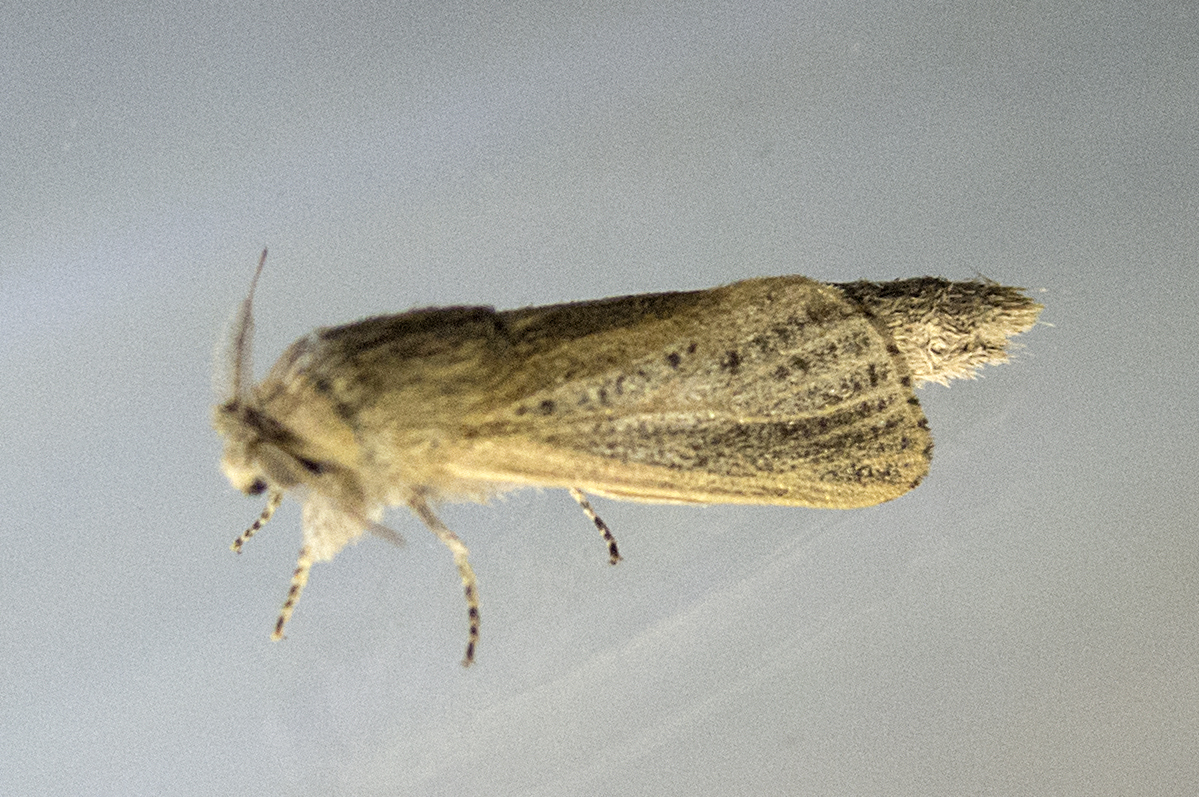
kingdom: Animalia
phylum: Arthropoda
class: Insecta
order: Lepidoptera
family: Cossidae
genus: Phragmataecia
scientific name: Phragmataecia castaneae
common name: Reed leopard
